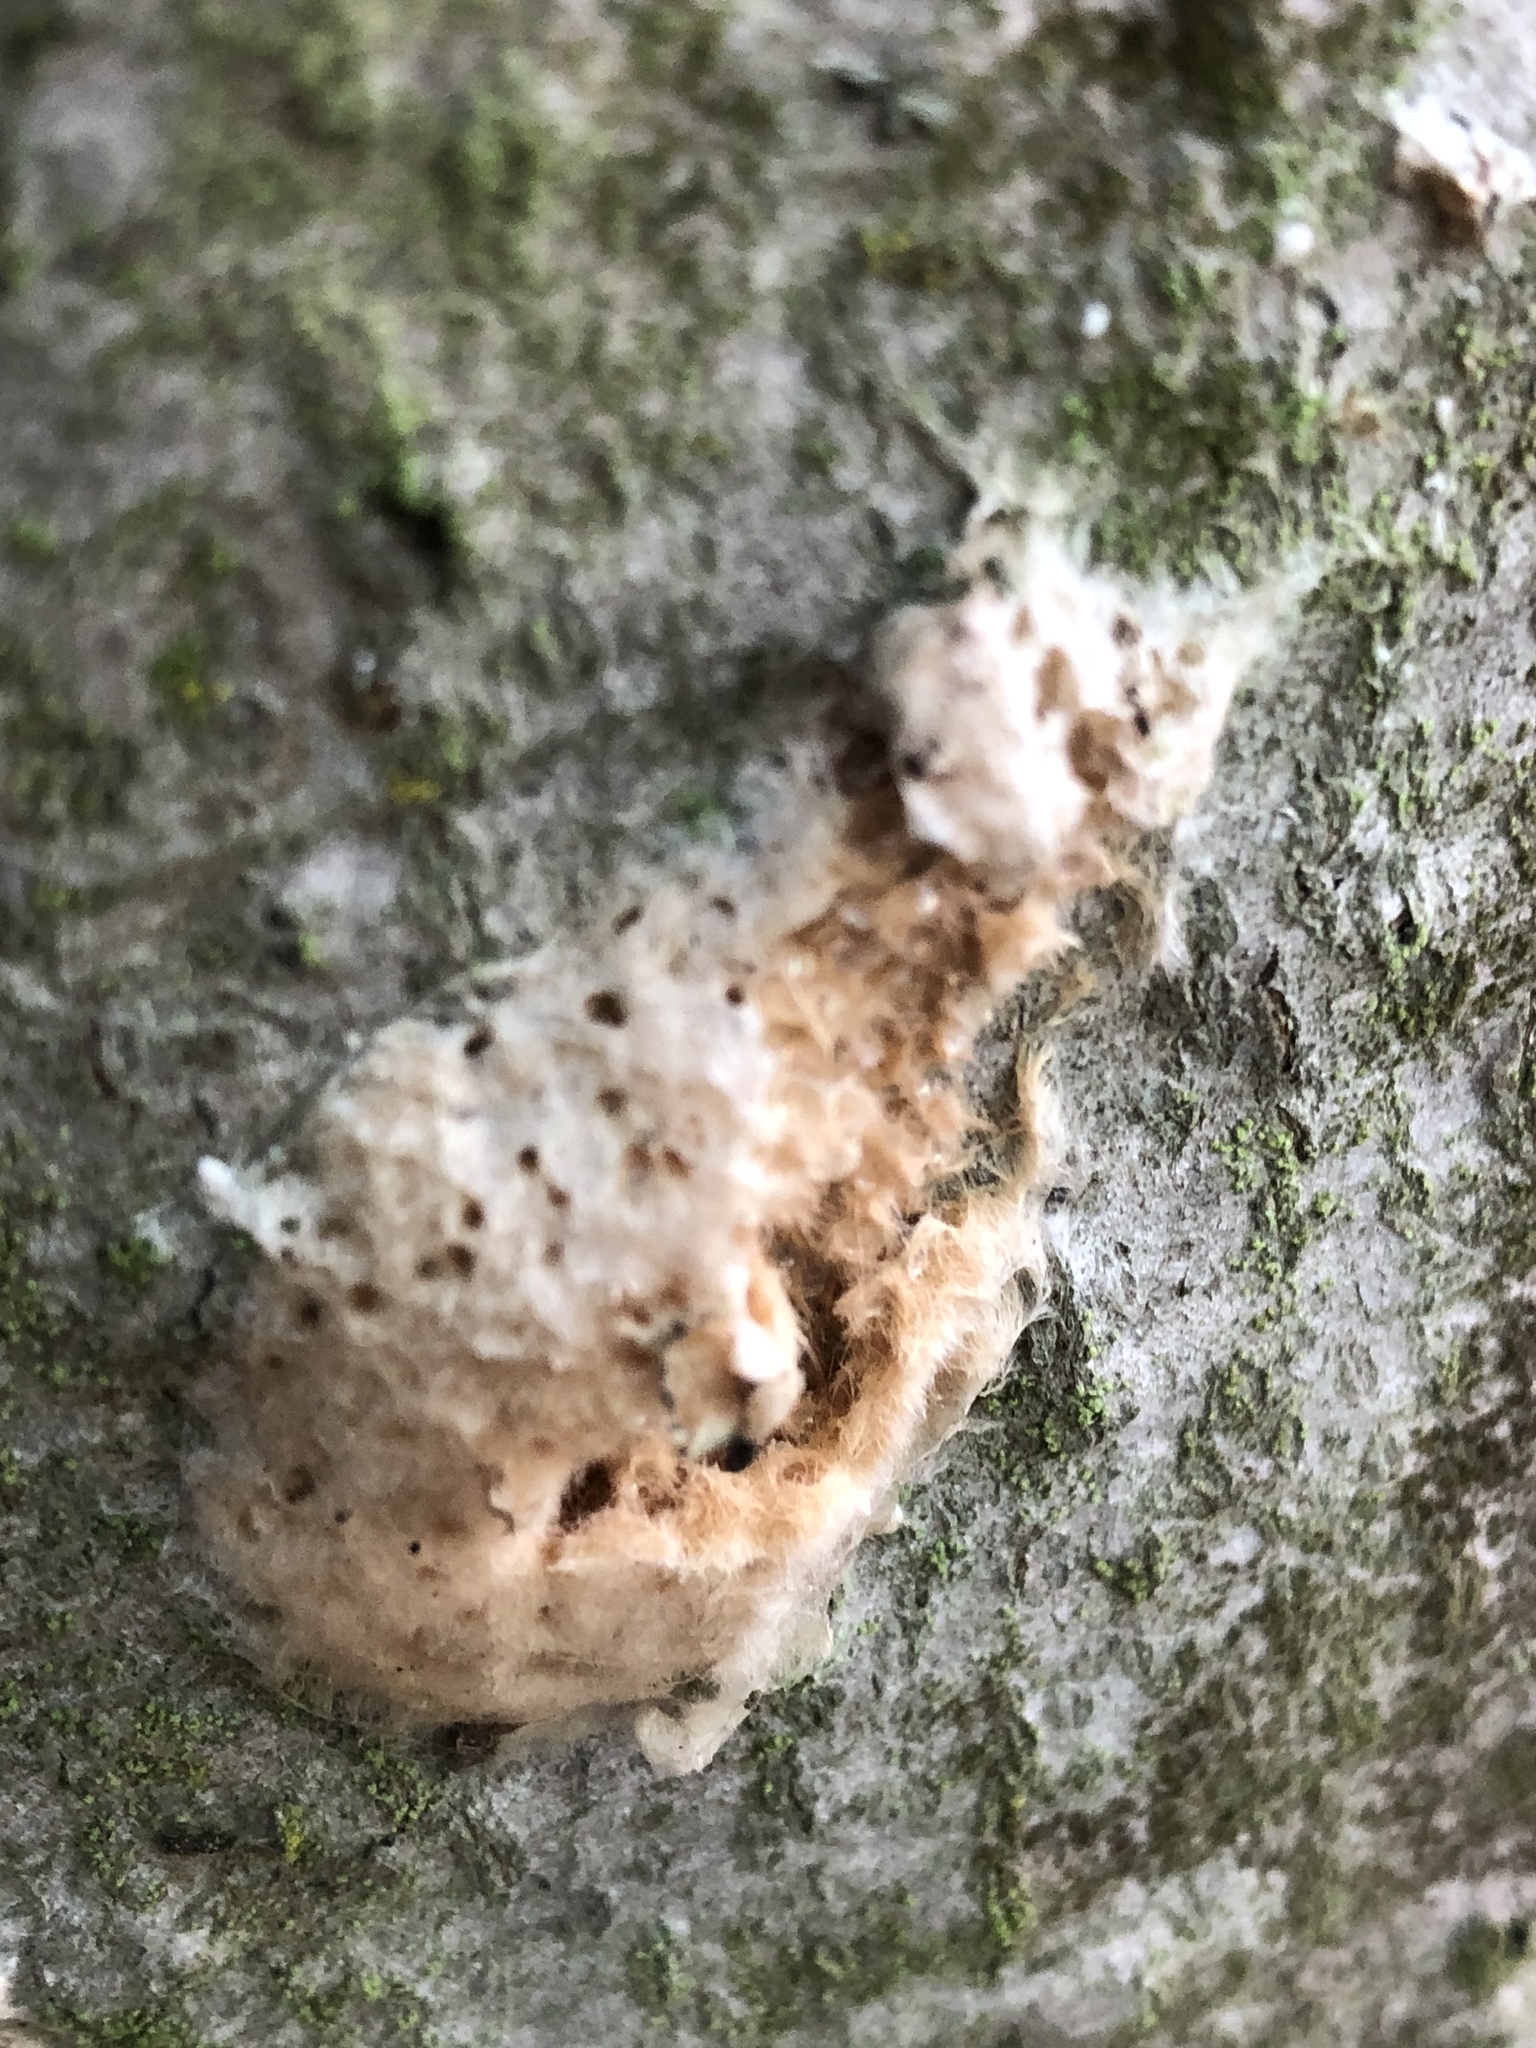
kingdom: Animalia
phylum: Arthropoda
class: Insecta
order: Lepidoptera
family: Erebidae
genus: Lymantria
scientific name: Lymantria dispar
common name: Gypsy moth
